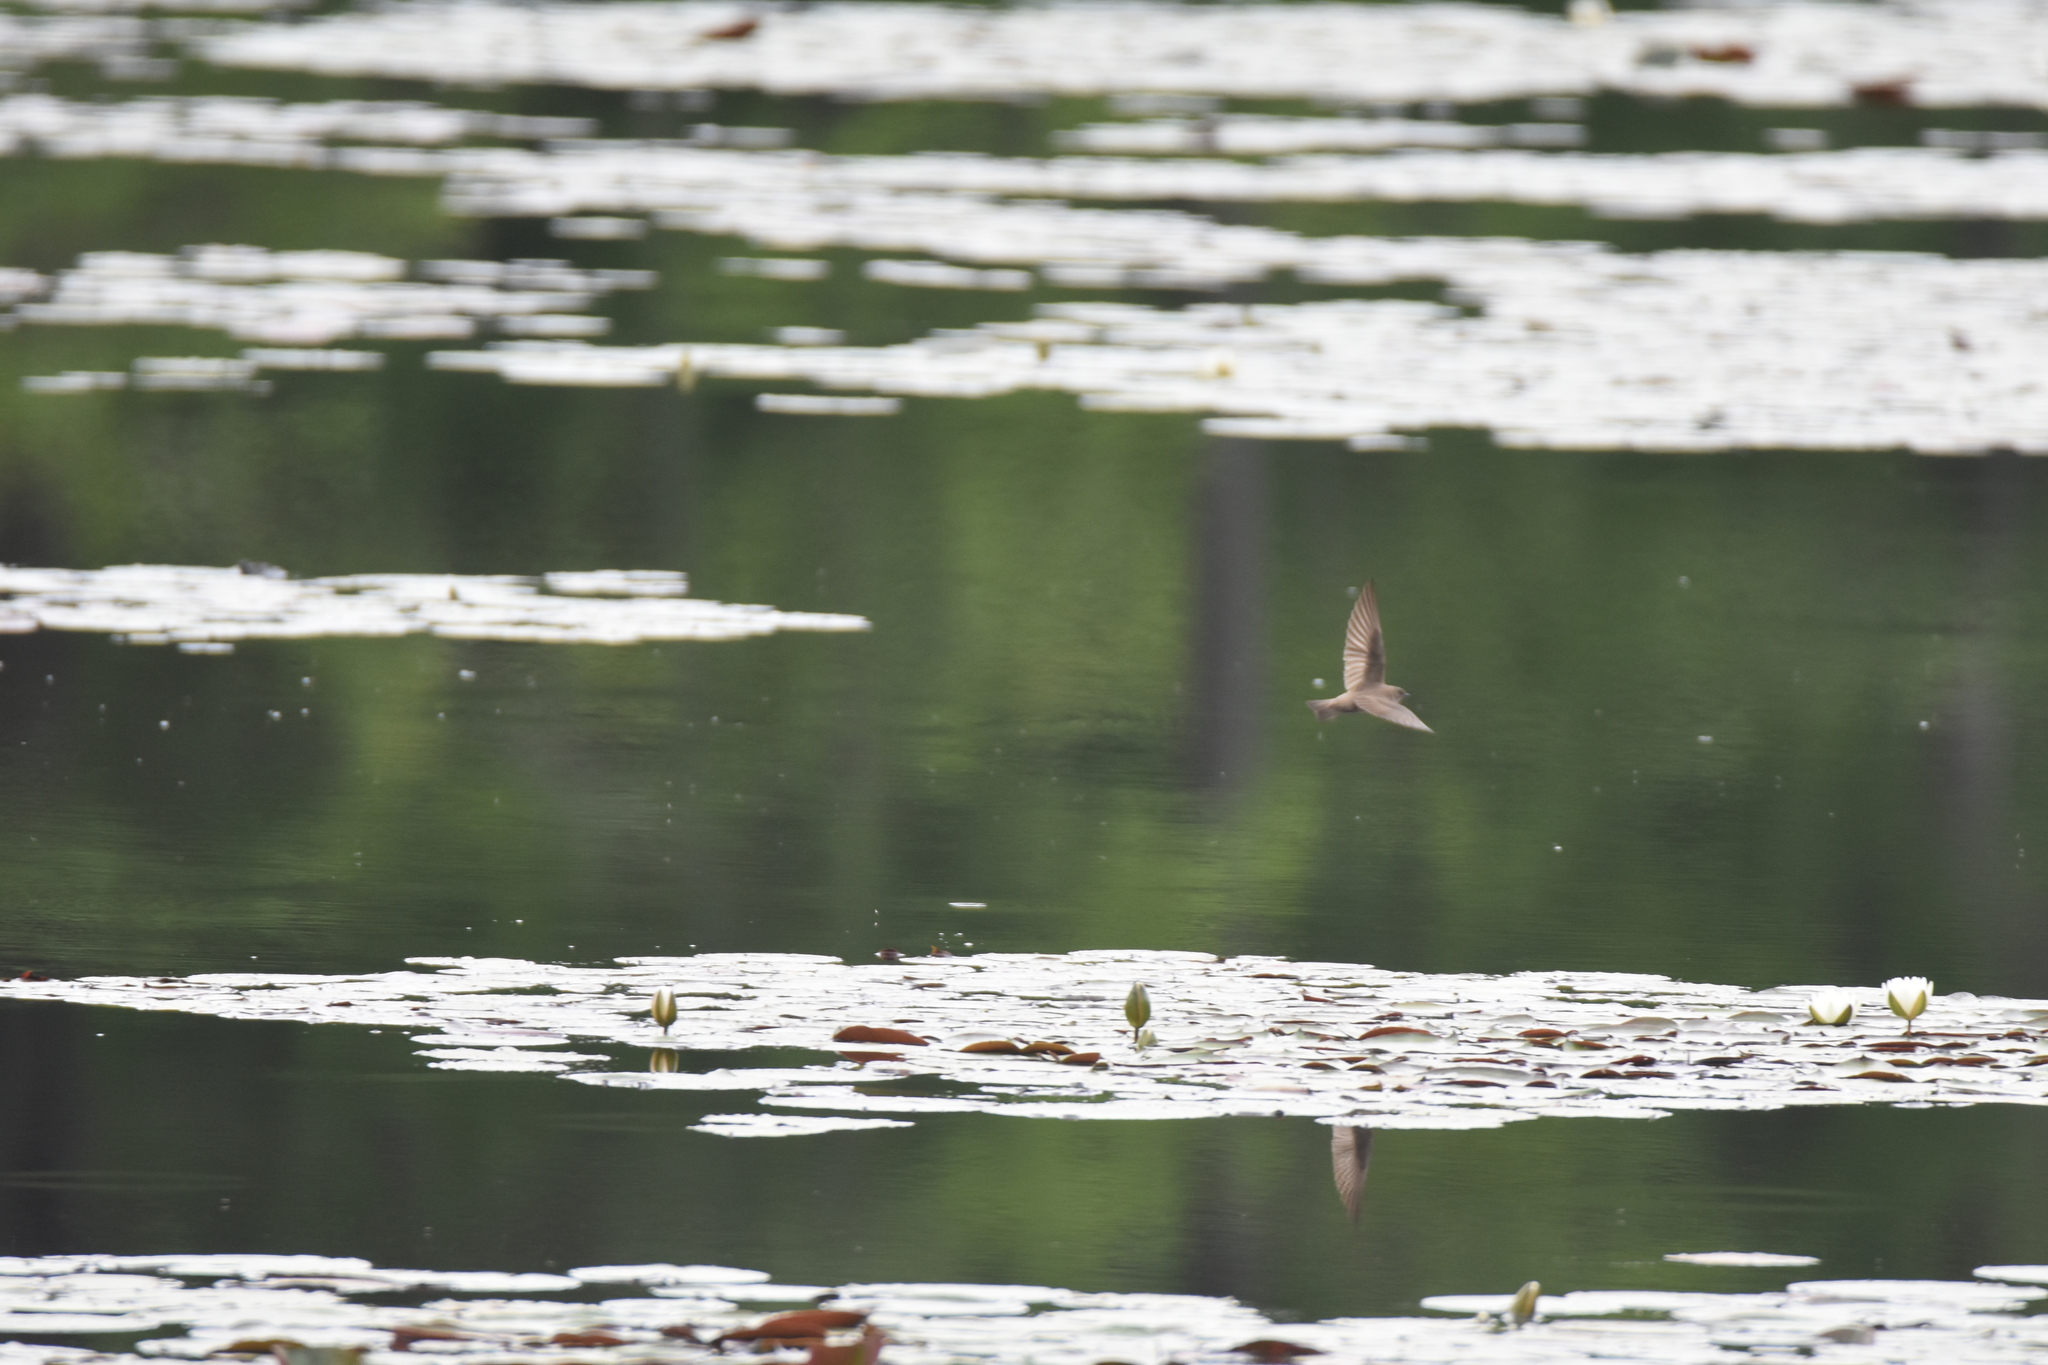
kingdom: Animalia
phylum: Chordata
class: Aves
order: Passeriformes
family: Hirundinidae
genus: Stelgidopteryx
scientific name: Stelgidopteryx serripennis
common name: Northern rough-winged swallow
